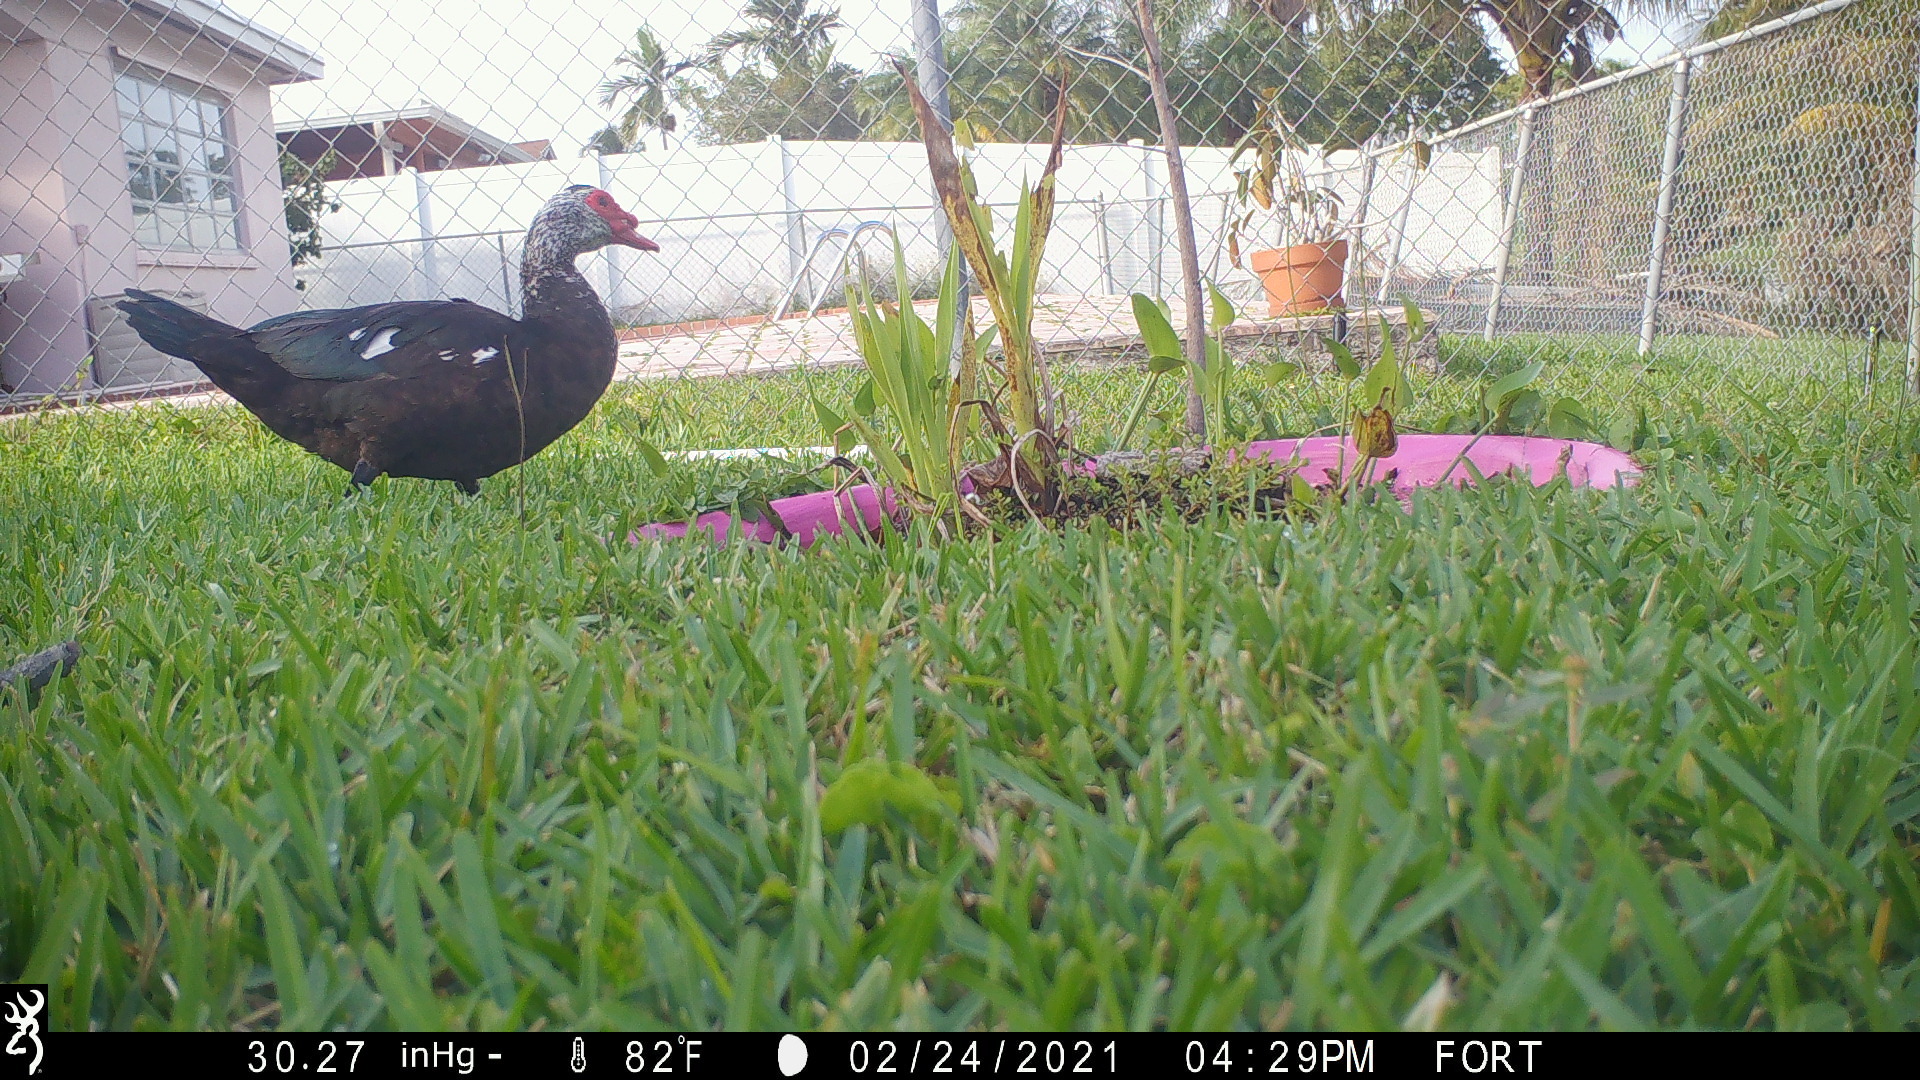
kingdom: Animalia
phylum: Chordata
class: Aves
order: Anseriformes
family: Anatidae
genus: Cairina
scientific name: Cairina moschata
